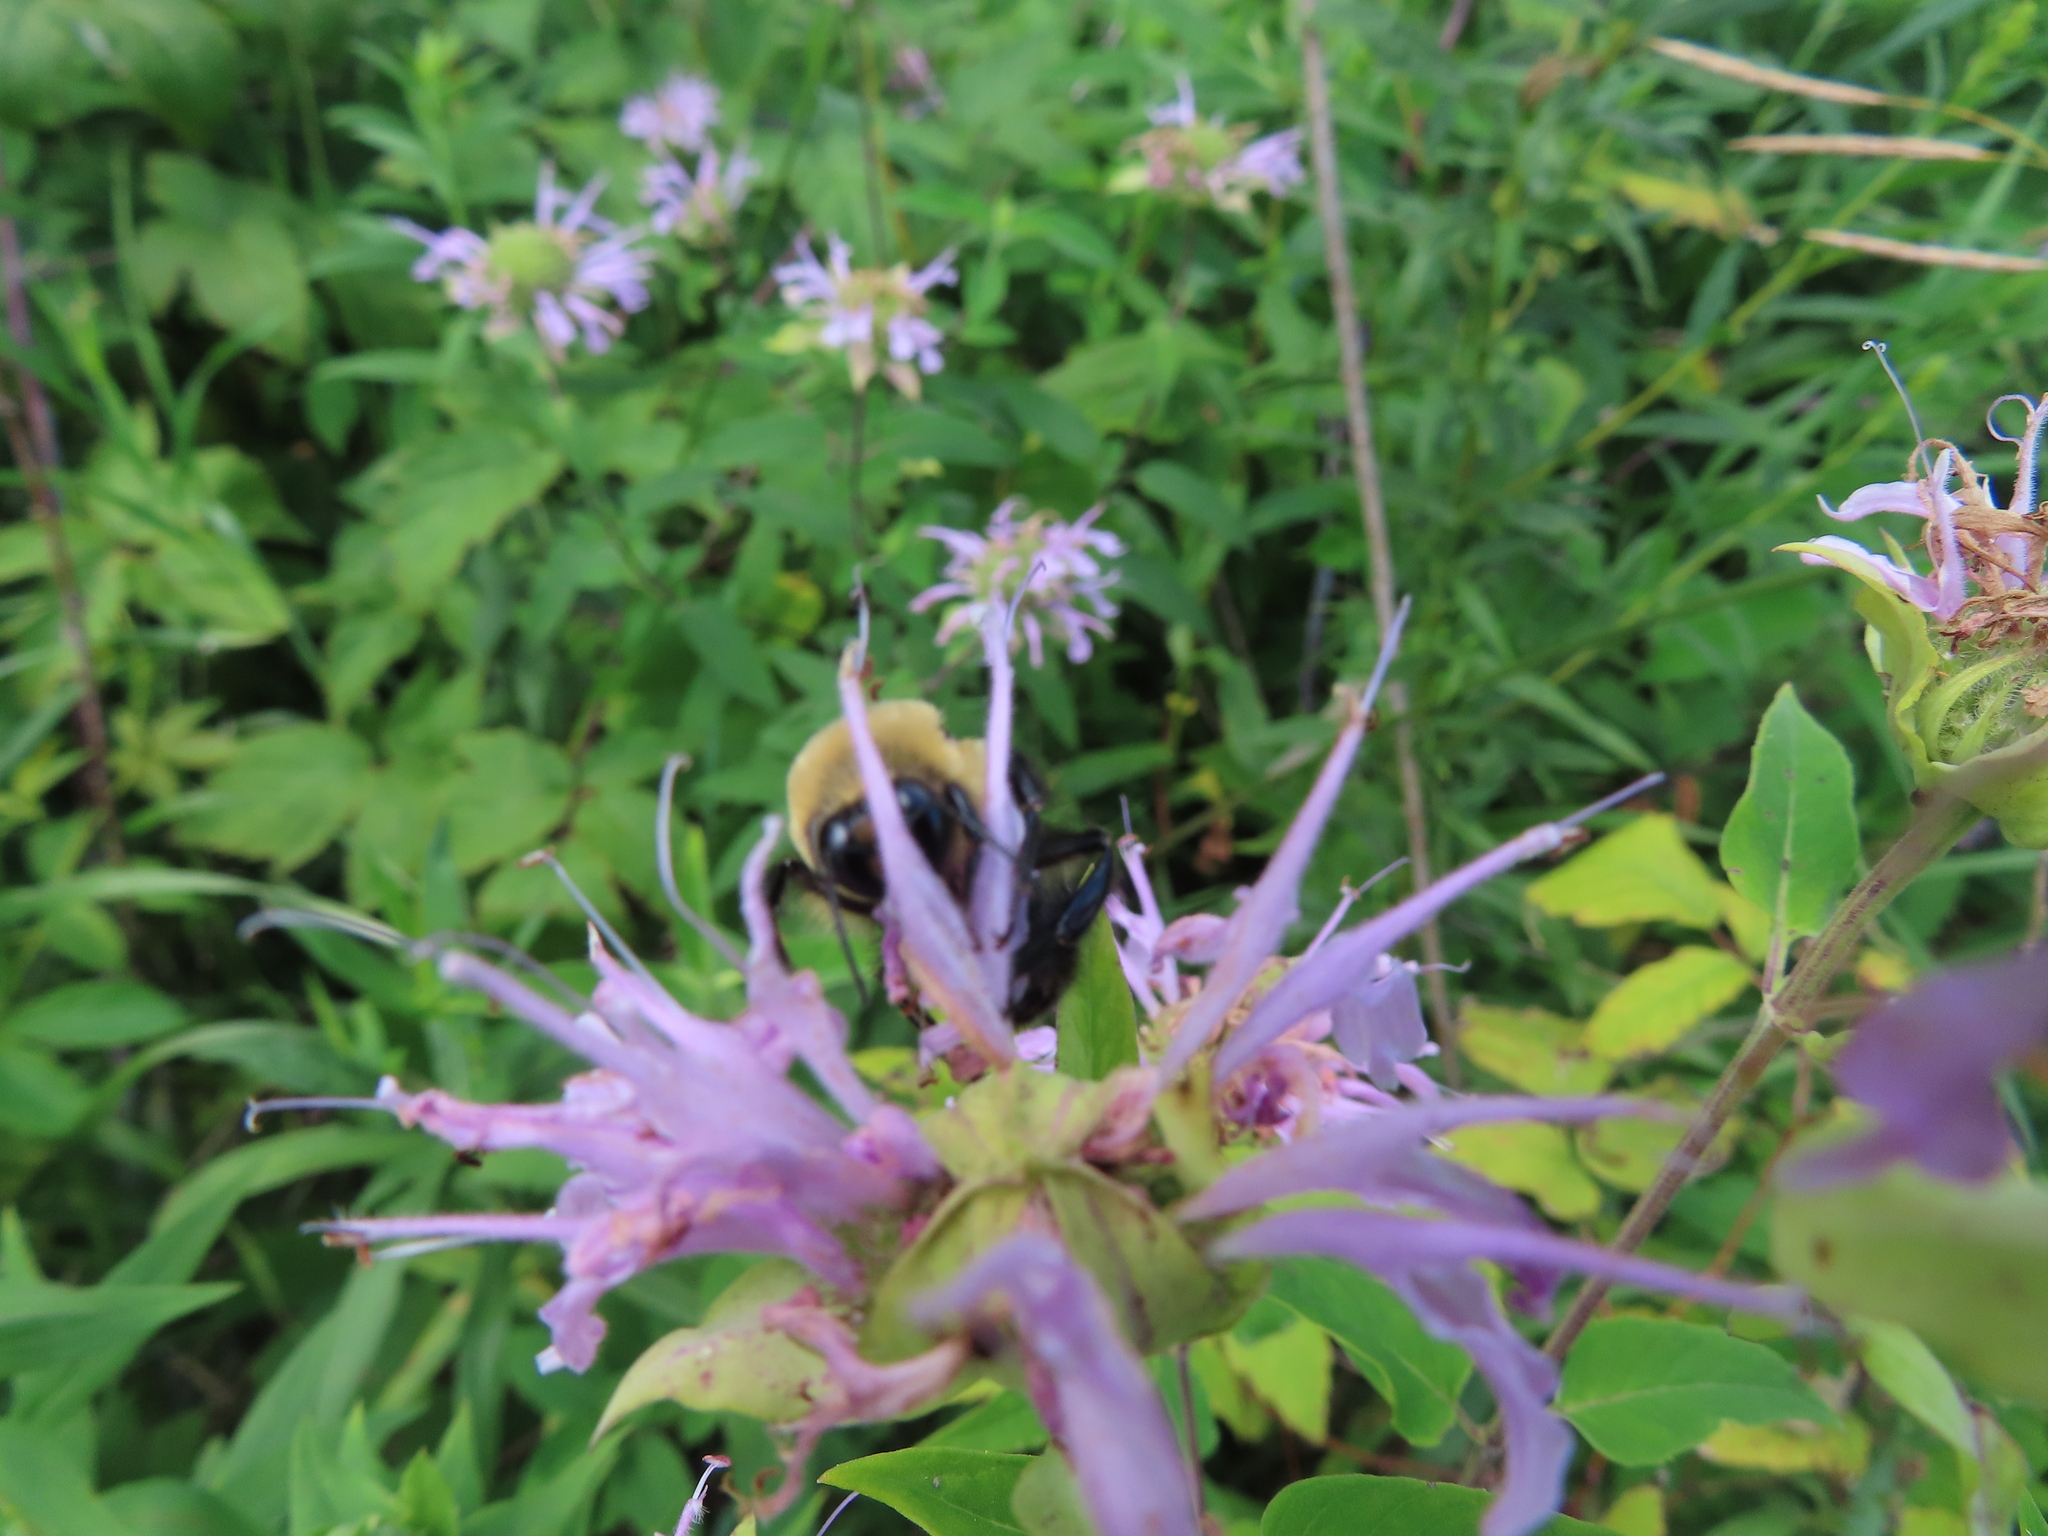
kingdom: Animalia
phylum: Arthropoda
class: Insecta
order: Hymenoptera
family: Apidae
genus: Bombus
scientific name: Bombus griseocollis
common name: Brown-belted bumble bee
